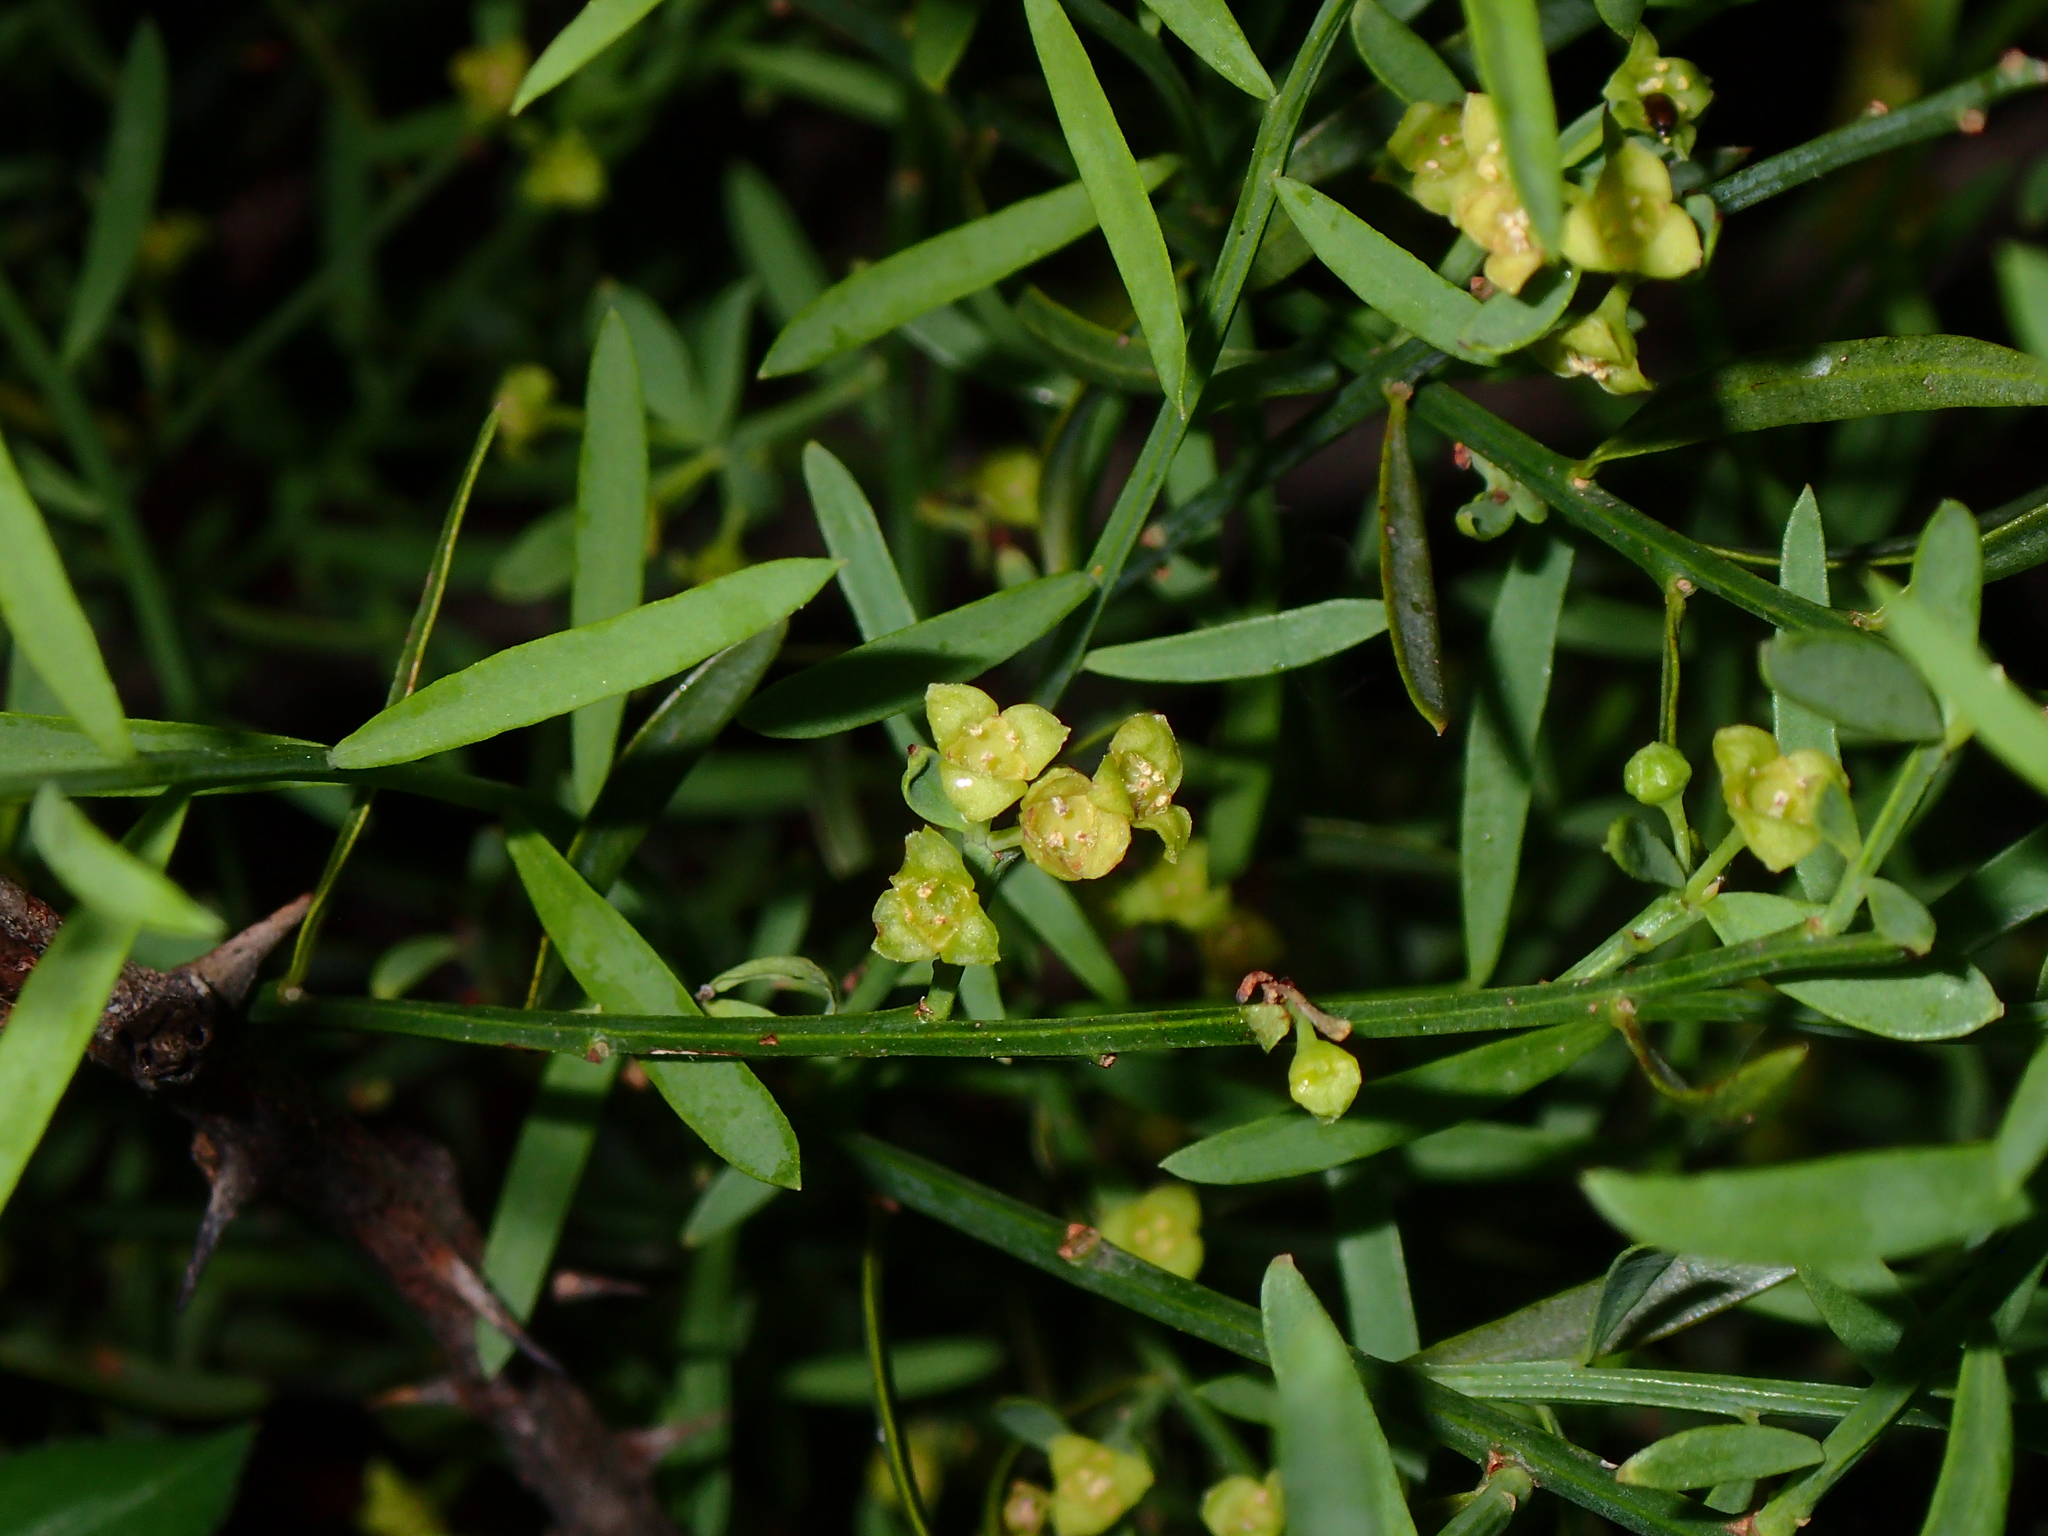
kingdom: Plantae
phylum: Tracheophyta
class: Magnoliopsida
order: Santalales
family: Santalaceae
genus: Osyris
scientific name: Osyris alba
